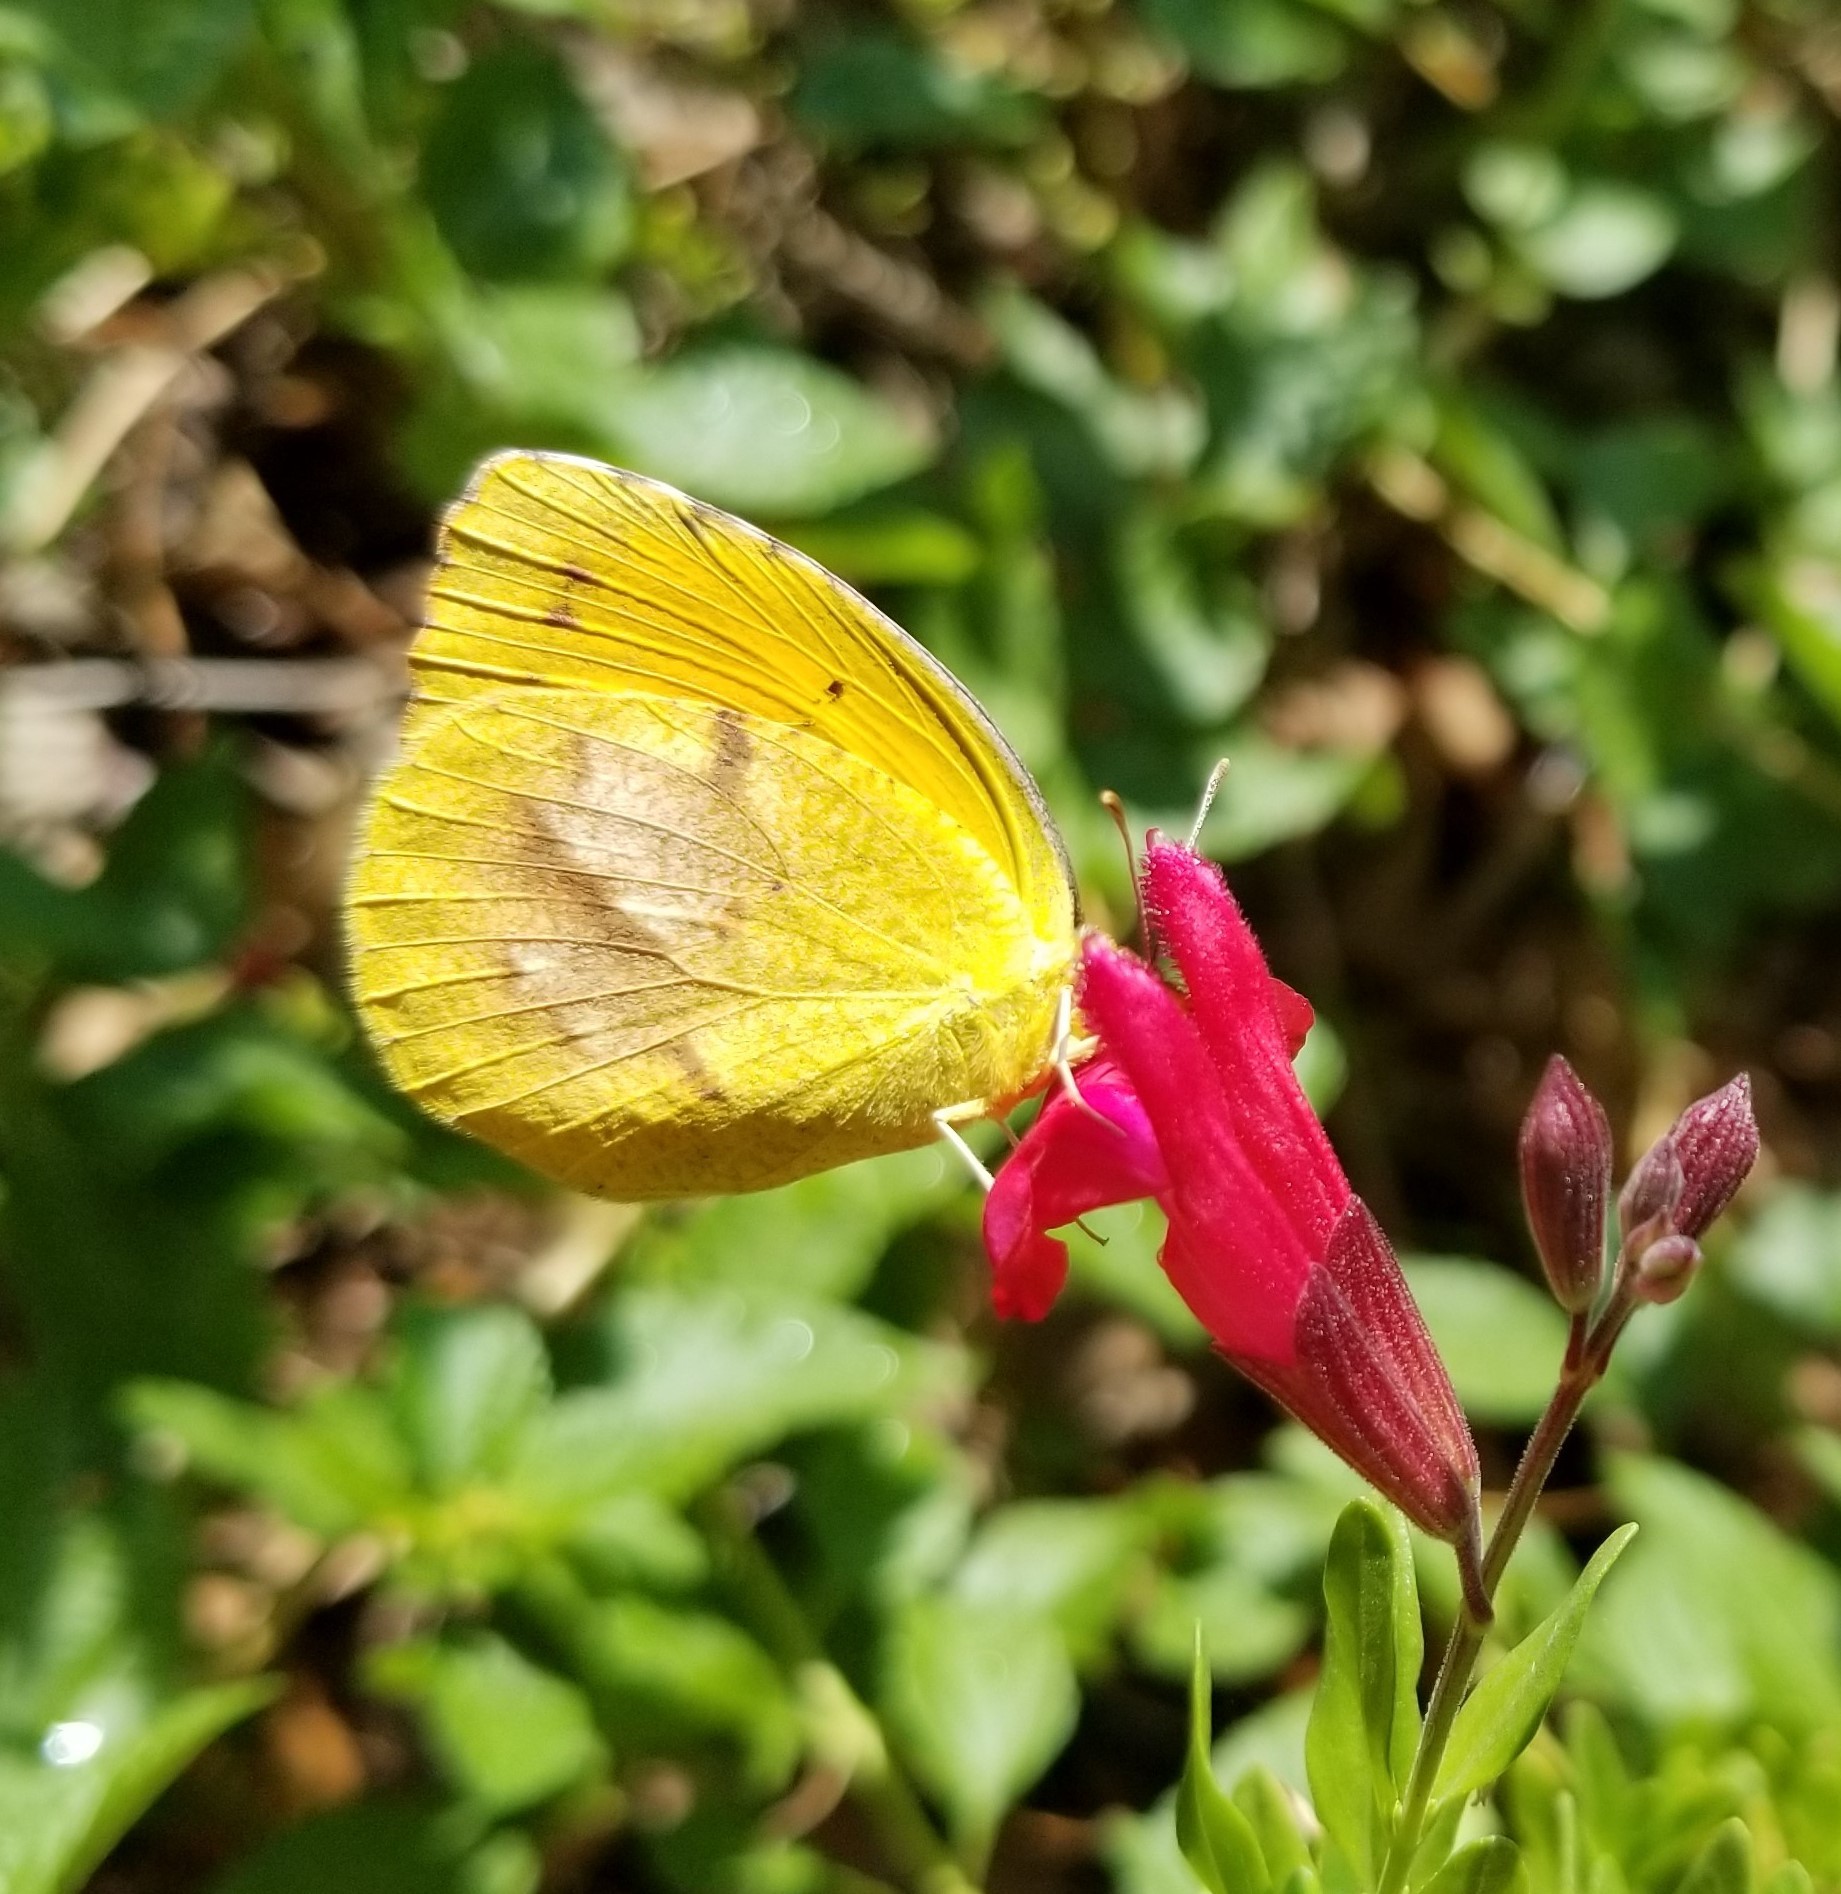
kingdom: Animalia
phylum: Arthropoda
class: Insecta
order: Lepidoptera
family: Pieridae
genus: Abaeis
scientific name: Abaeis nicippe
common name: Sleepy orange
